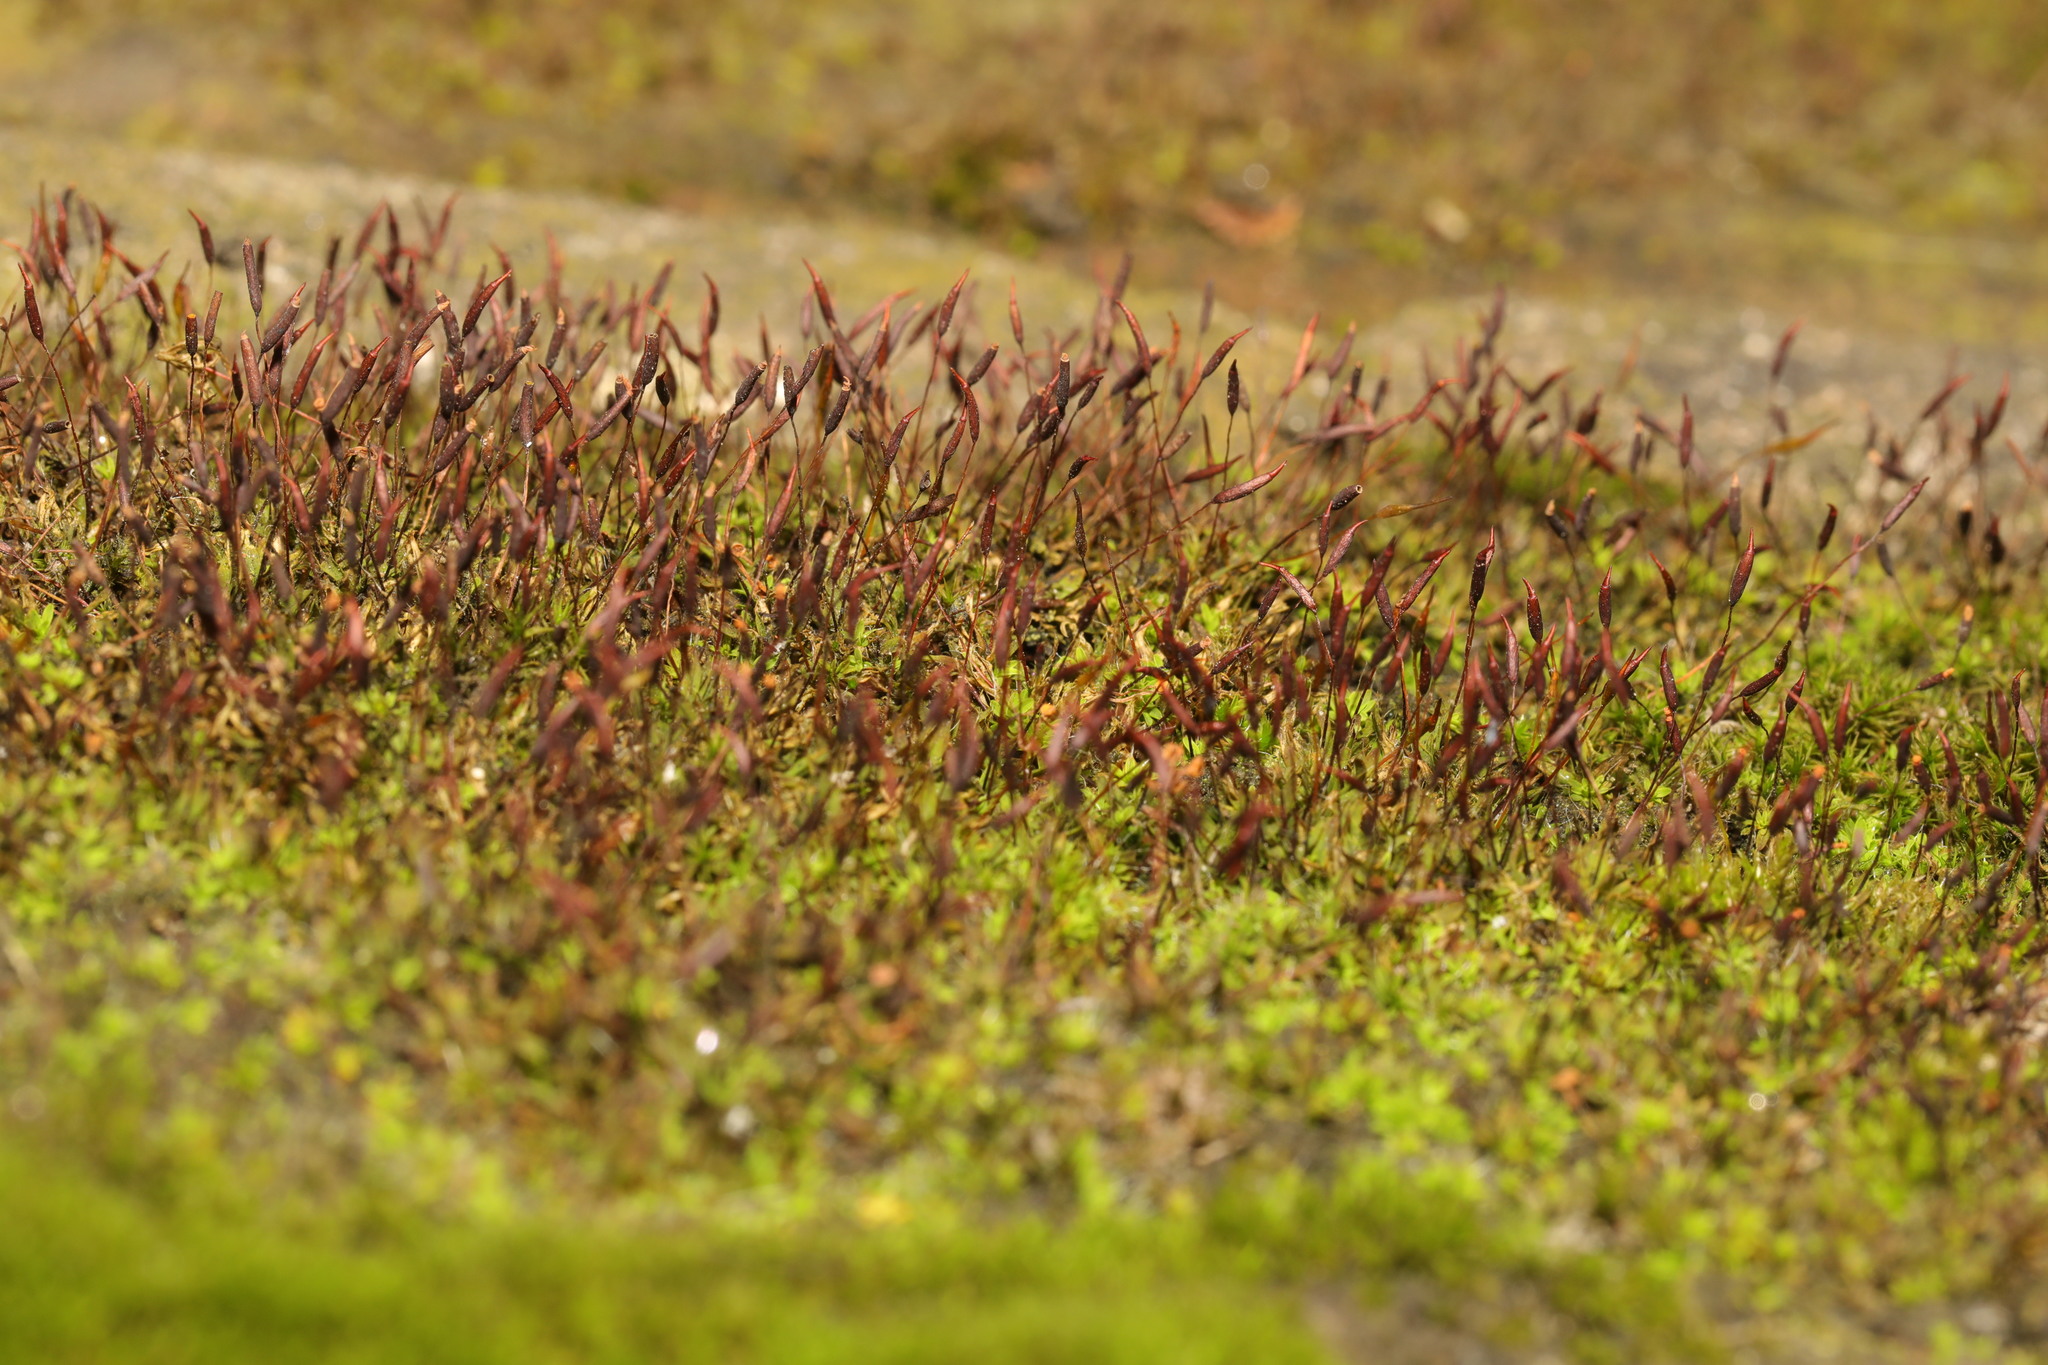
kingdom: Plantae
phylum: Bryophyta
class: Bryopsida
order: Pottiales
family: Pottiaceae
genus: Tortula
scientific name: Tortula muralis
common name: Wall screw-moss
